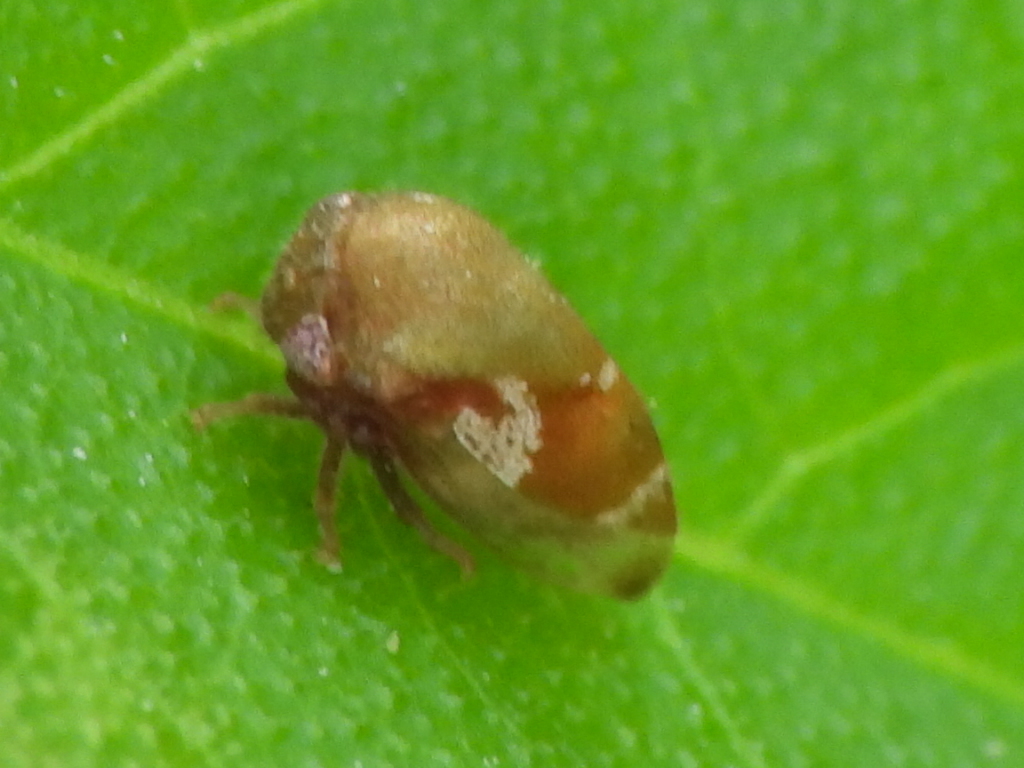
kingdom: Animalia
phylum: Arthropoda
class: Insecta
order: Hemiptera
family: Membracidae
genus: Vanduzea
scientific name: Vanduzea segmentata
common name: Membracid bug
